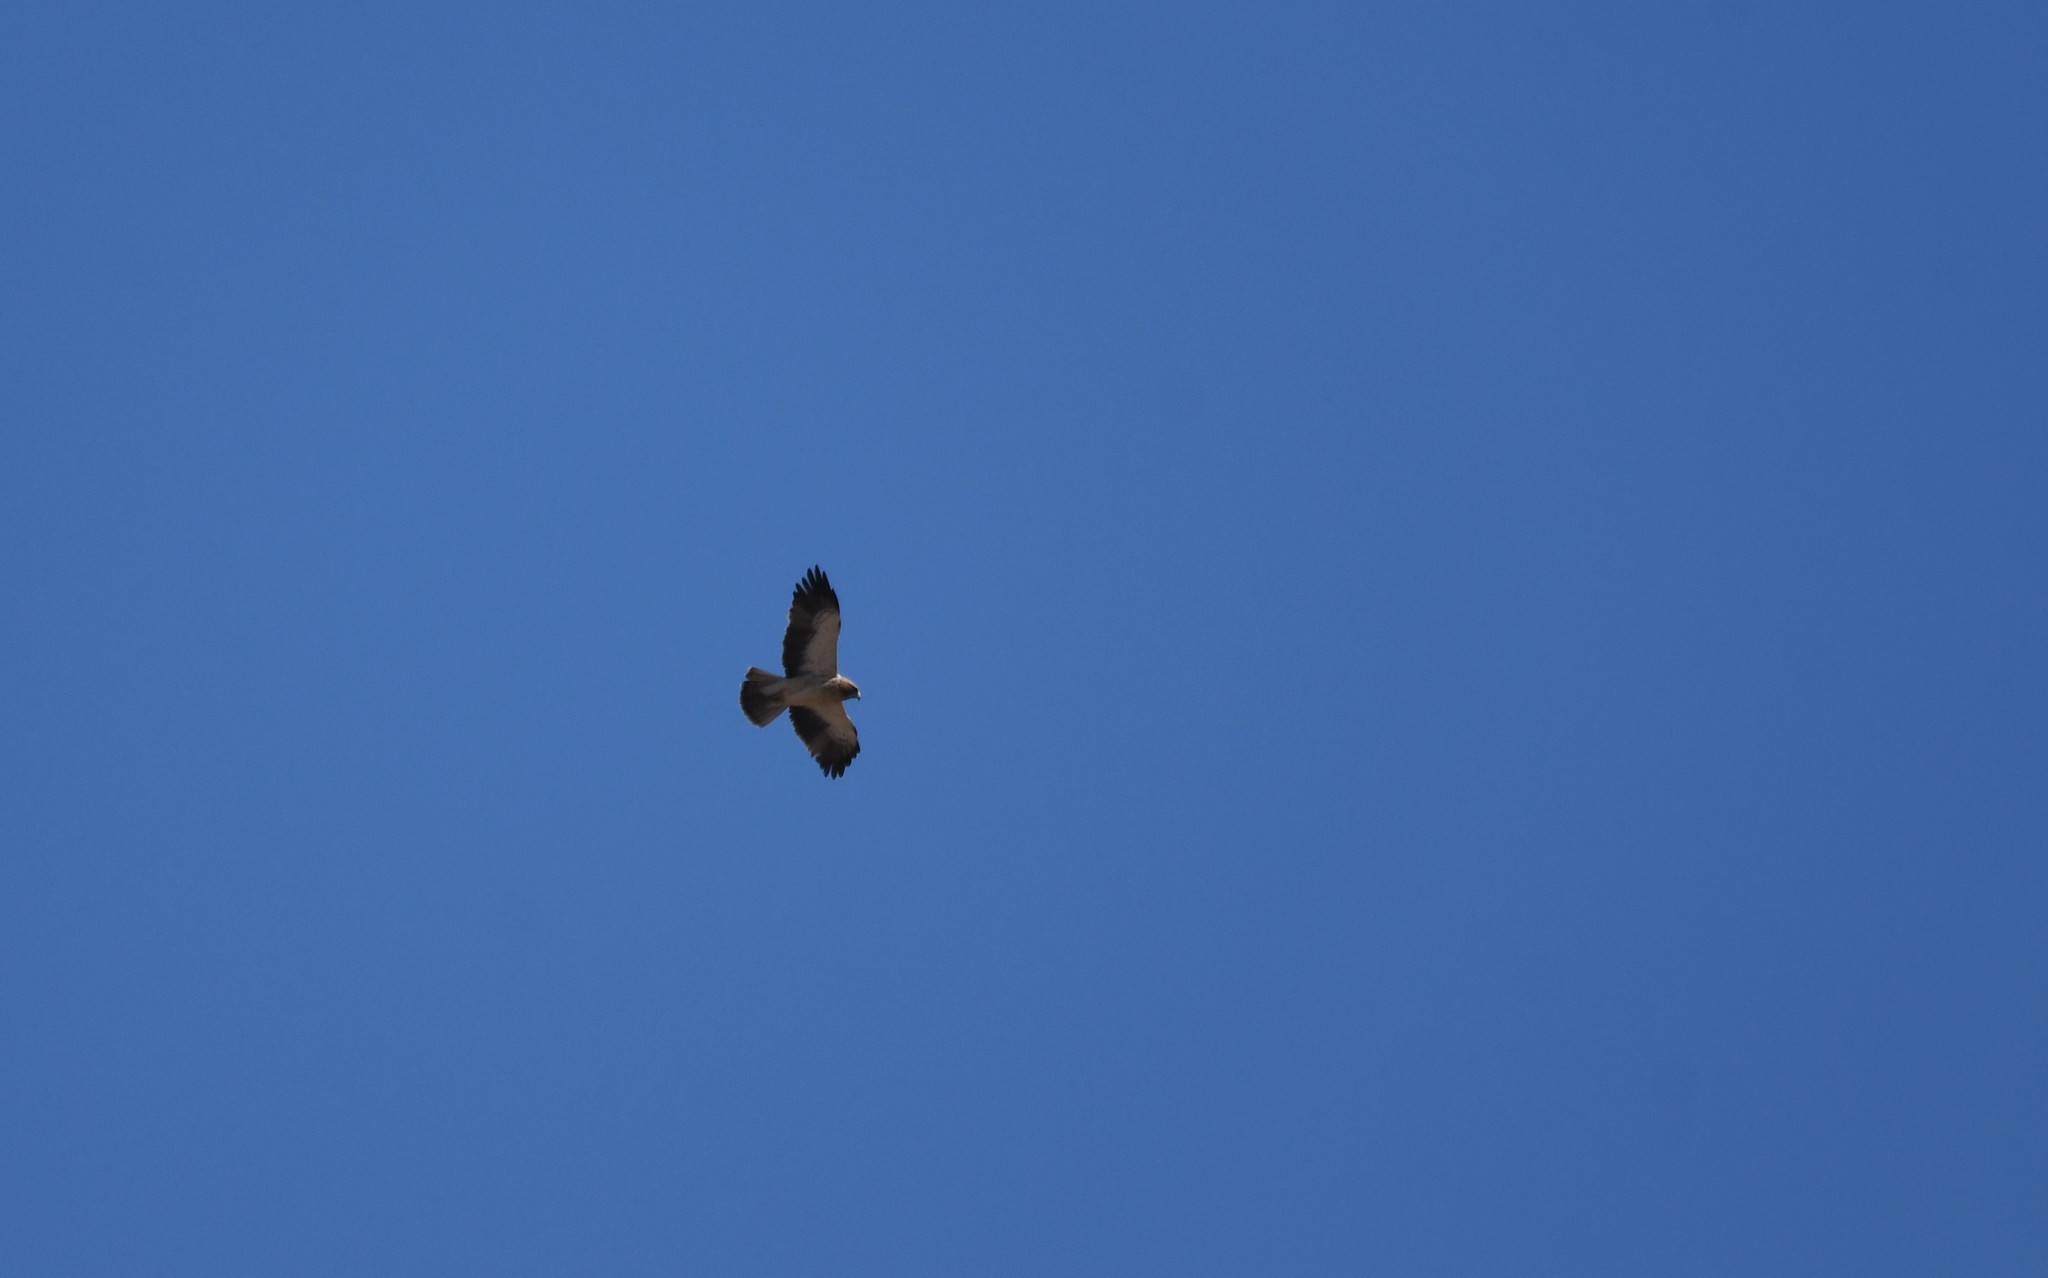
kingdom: Animalia
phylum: Chordata
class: Aves
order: Accipitriformes
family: Accipitridae
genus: Hieraaetus
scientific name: Hieraaetus pennatus
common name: Booted eagle
